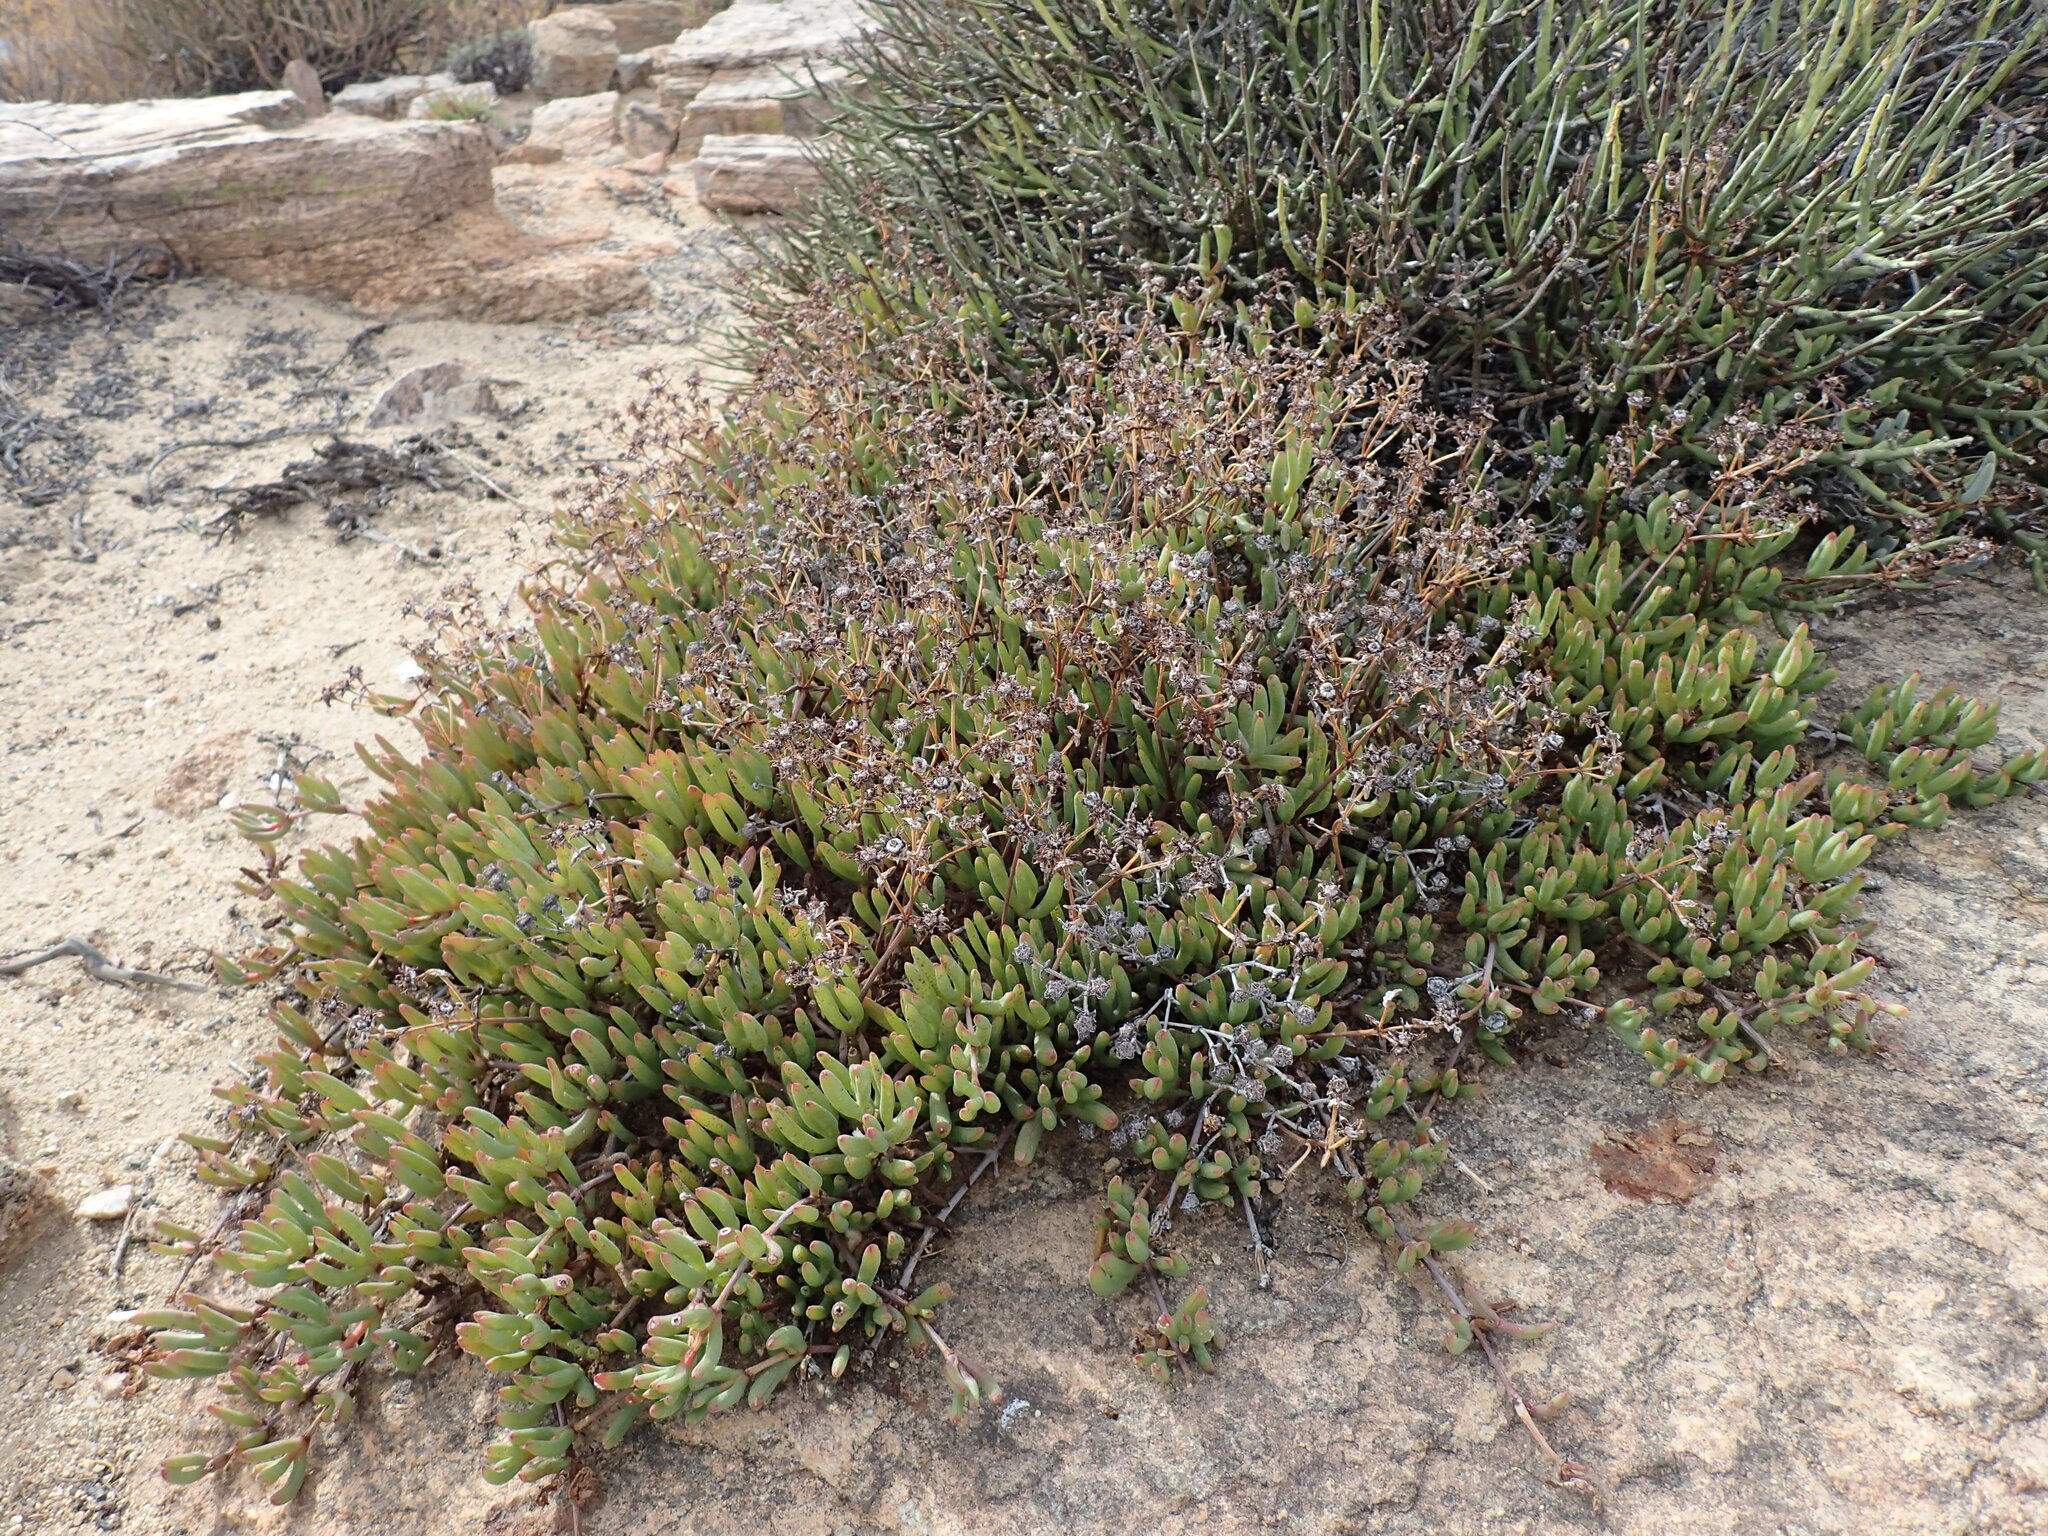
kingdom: Plantae
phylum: Tracheophyta
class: Magnoliopsida
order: Caryophyllales
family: Aizoaceae
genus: Ruschia
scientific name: Ruschia viridifolia
